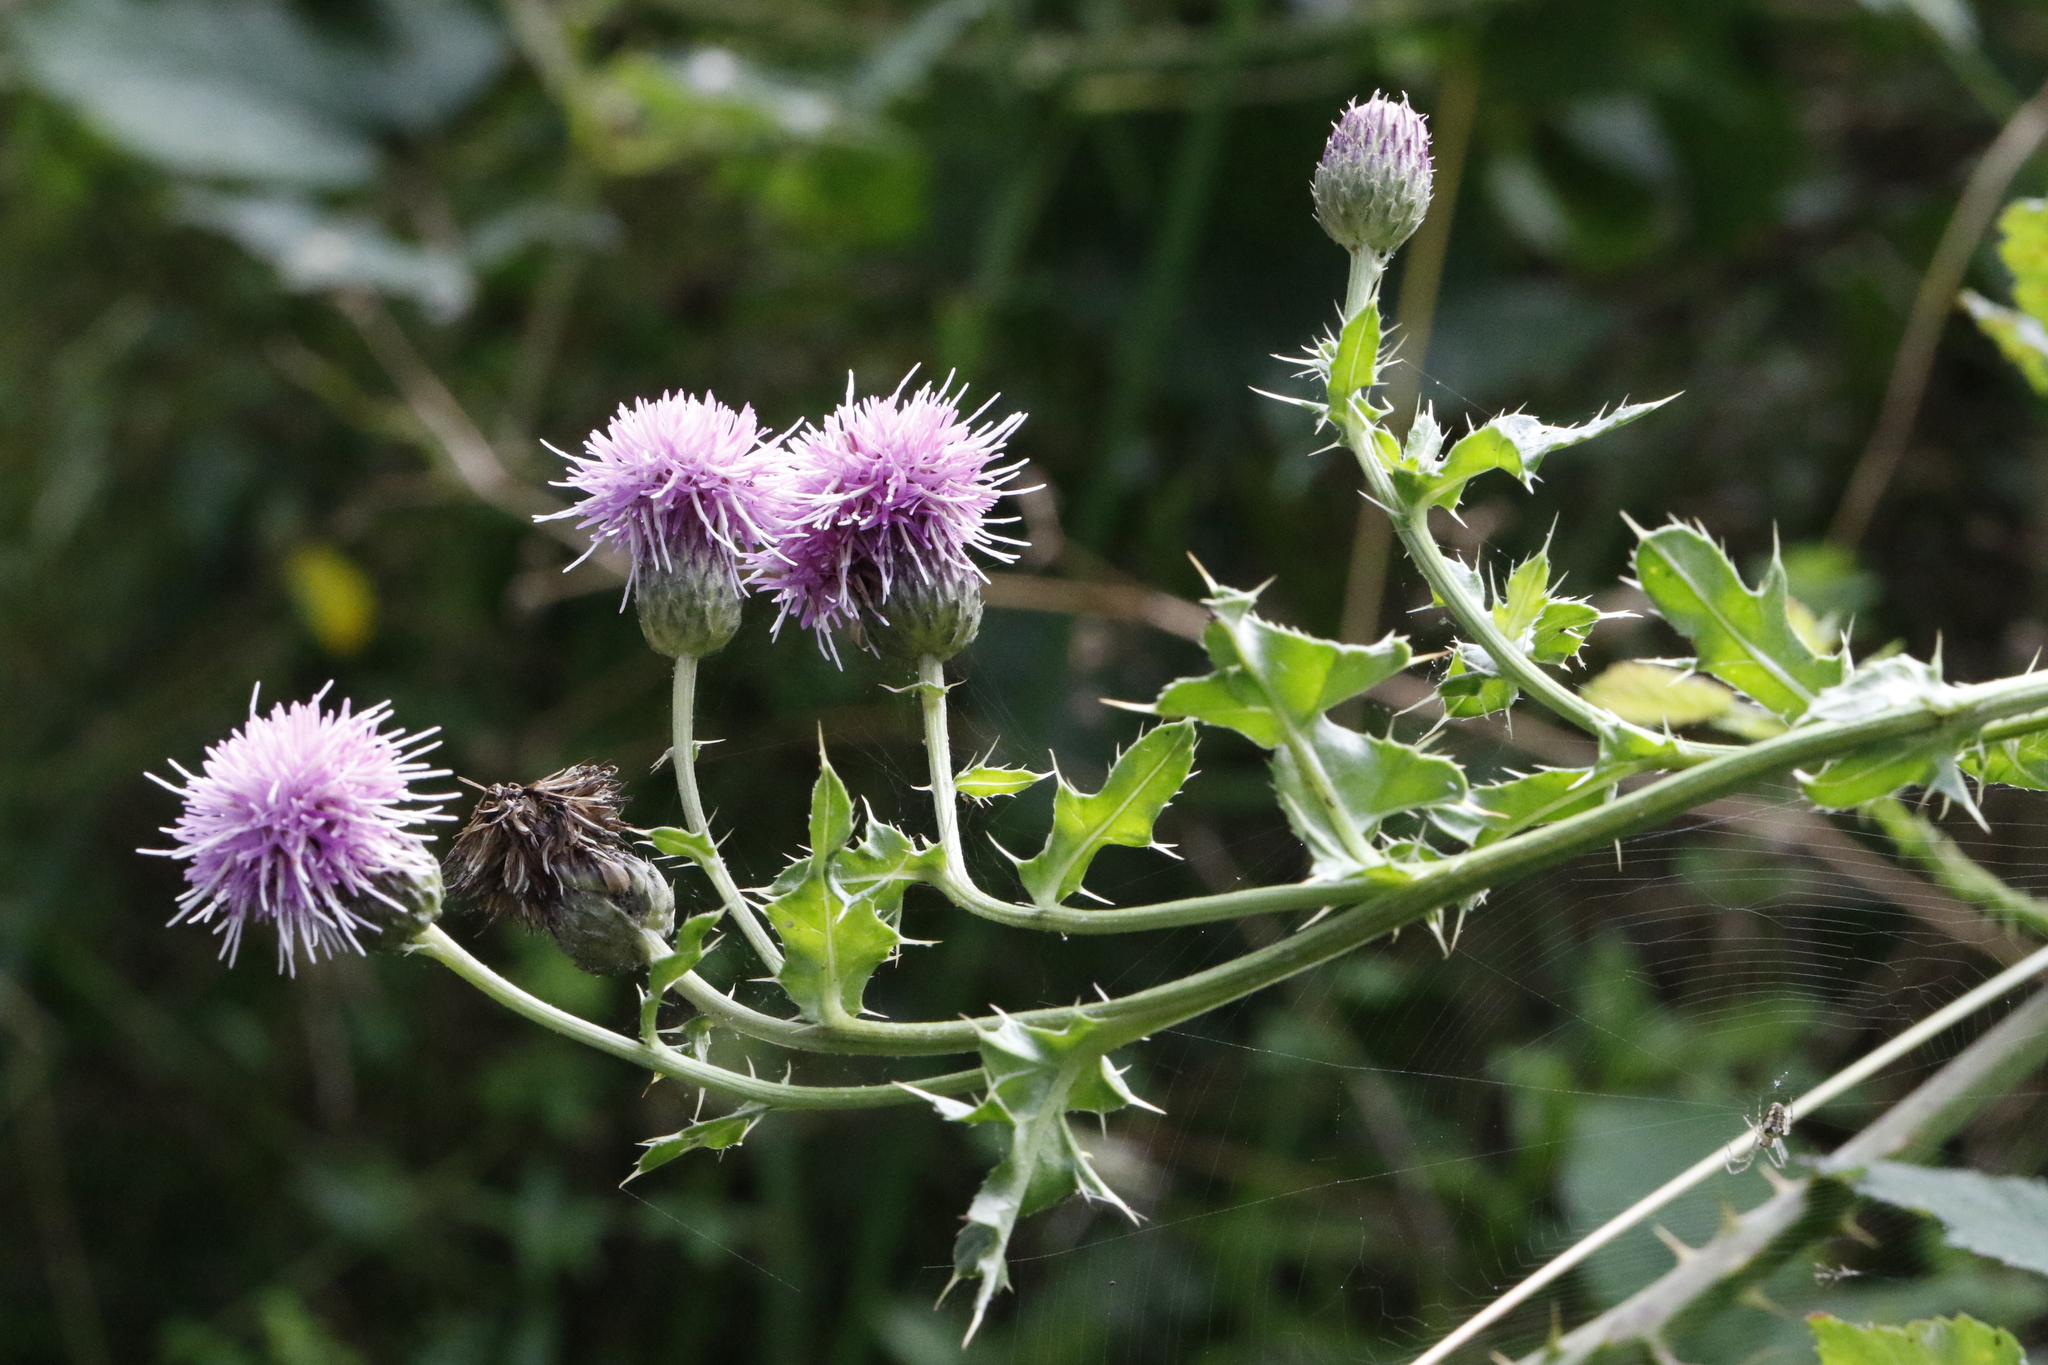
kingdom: Plantae
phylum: Tracheophyta
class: Magnoliopsida
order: Asterales
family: Asteraceae
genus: Cirsium
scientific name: Cirsium arvense
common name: Creeping thistle
